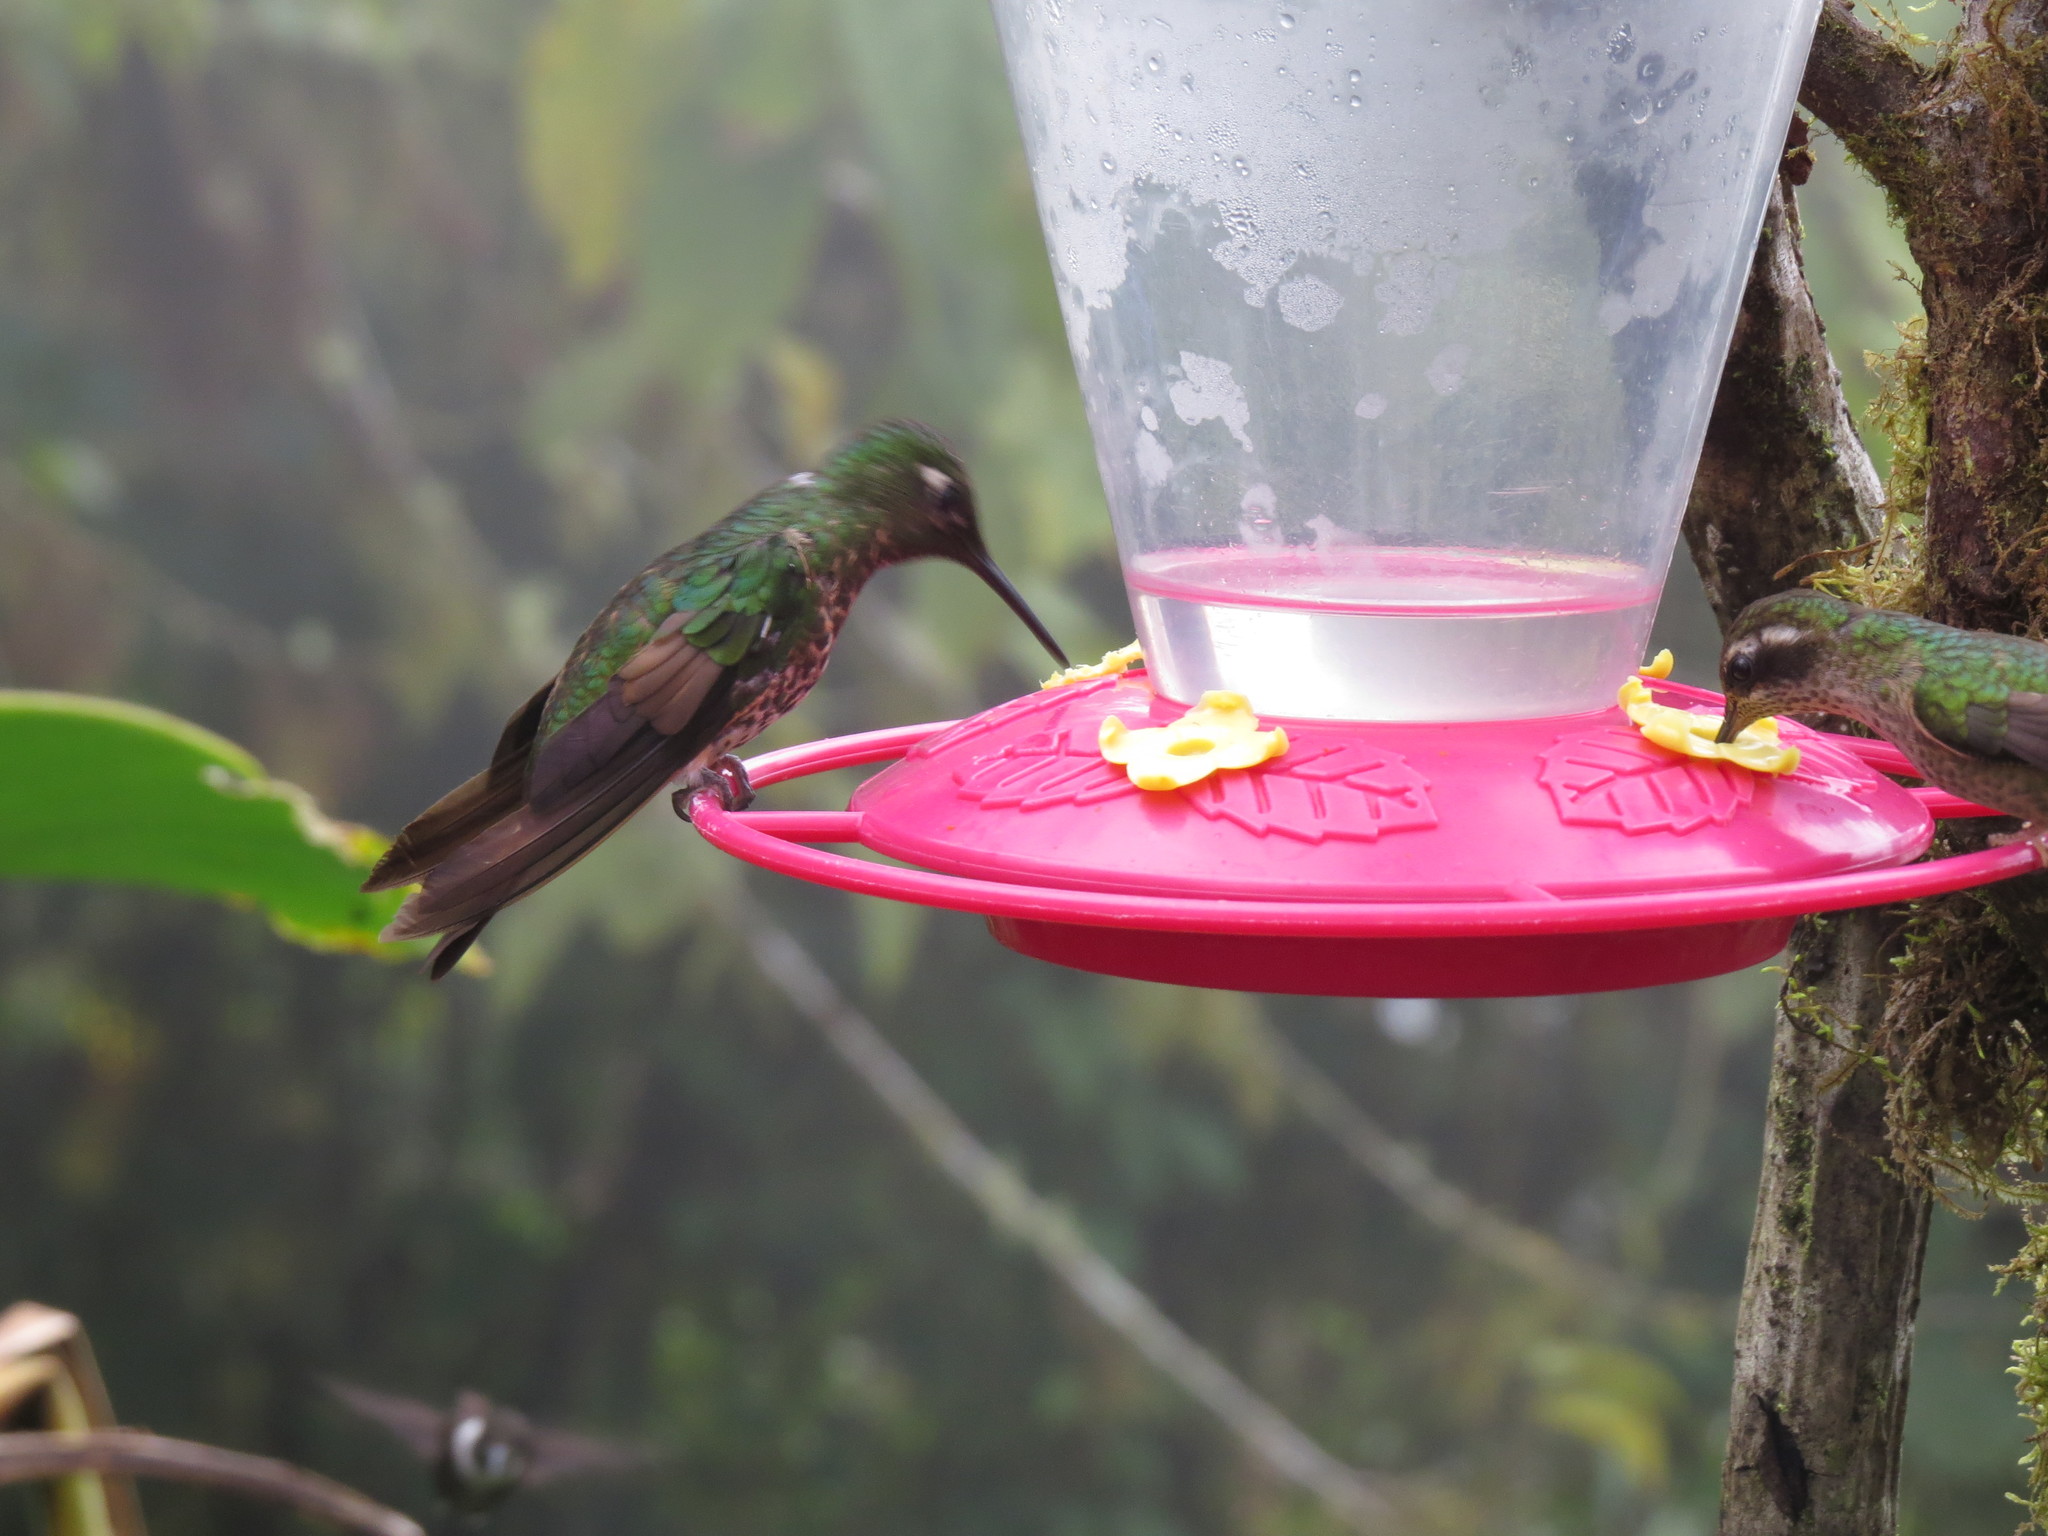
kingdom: Animalia
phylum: Chordata
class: Aves
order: Apodiformes
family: Trochilidae
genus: Heliodoxa
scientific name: Heliodoxa rubinoides
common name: Fawn-breasted brilliant
